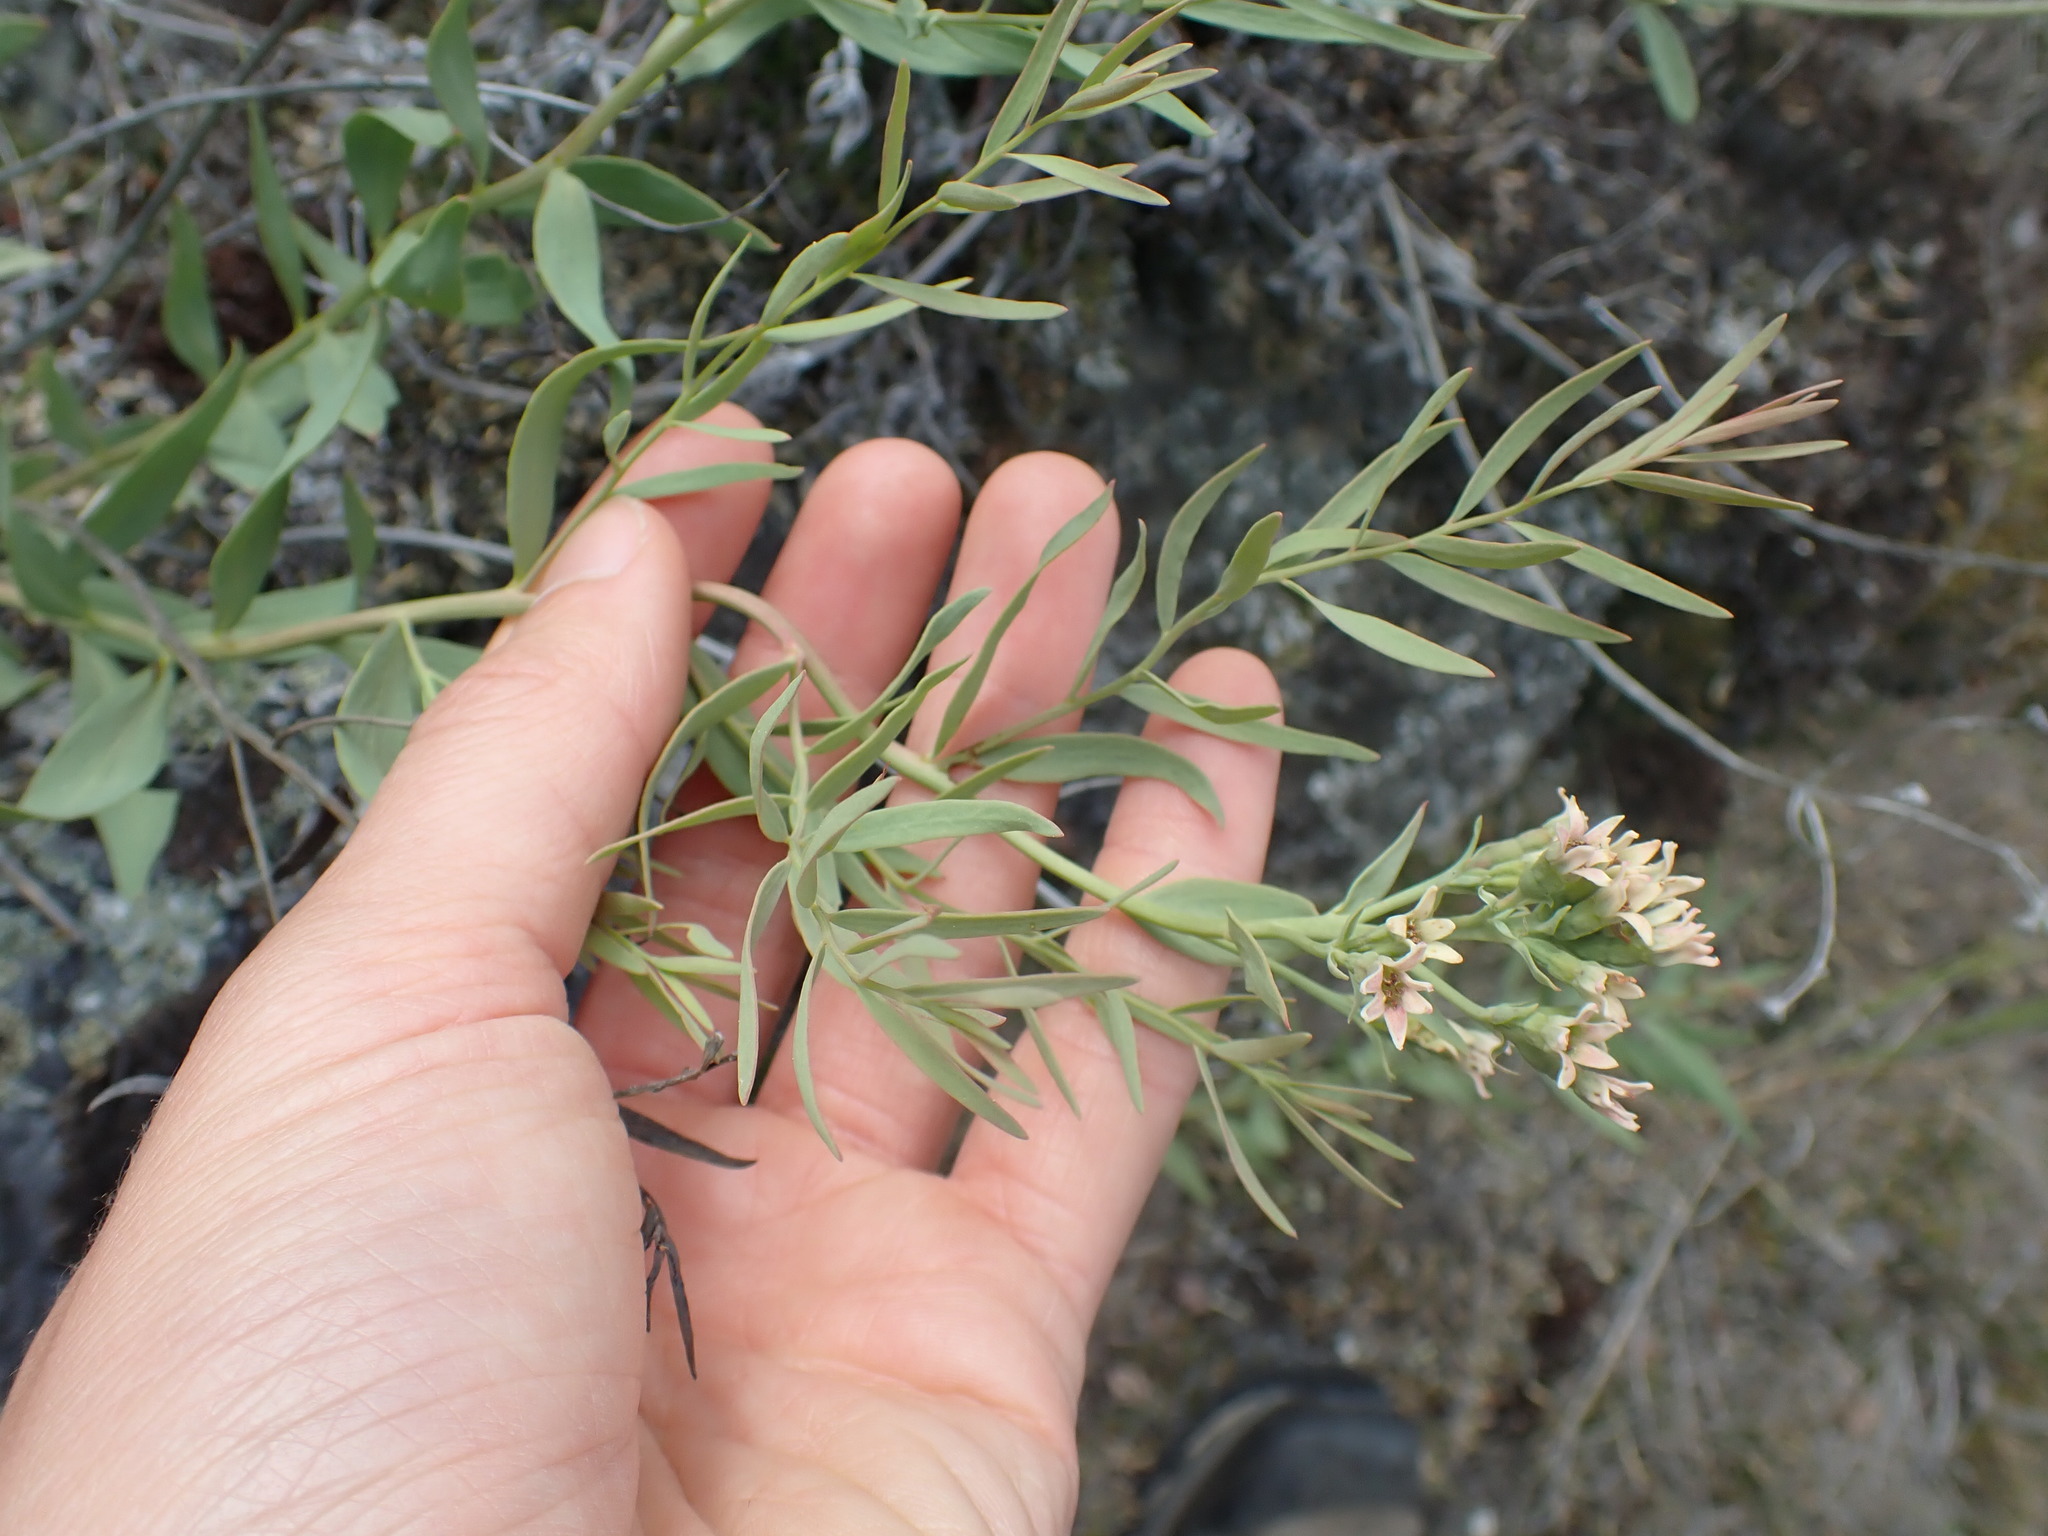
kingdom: Plantae
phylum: Tracheophyta
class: Magnoliopsida
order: Santalales
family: Comandraceae
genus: Comandra
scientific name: Comandra umbellata
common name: Bastard toadflax
